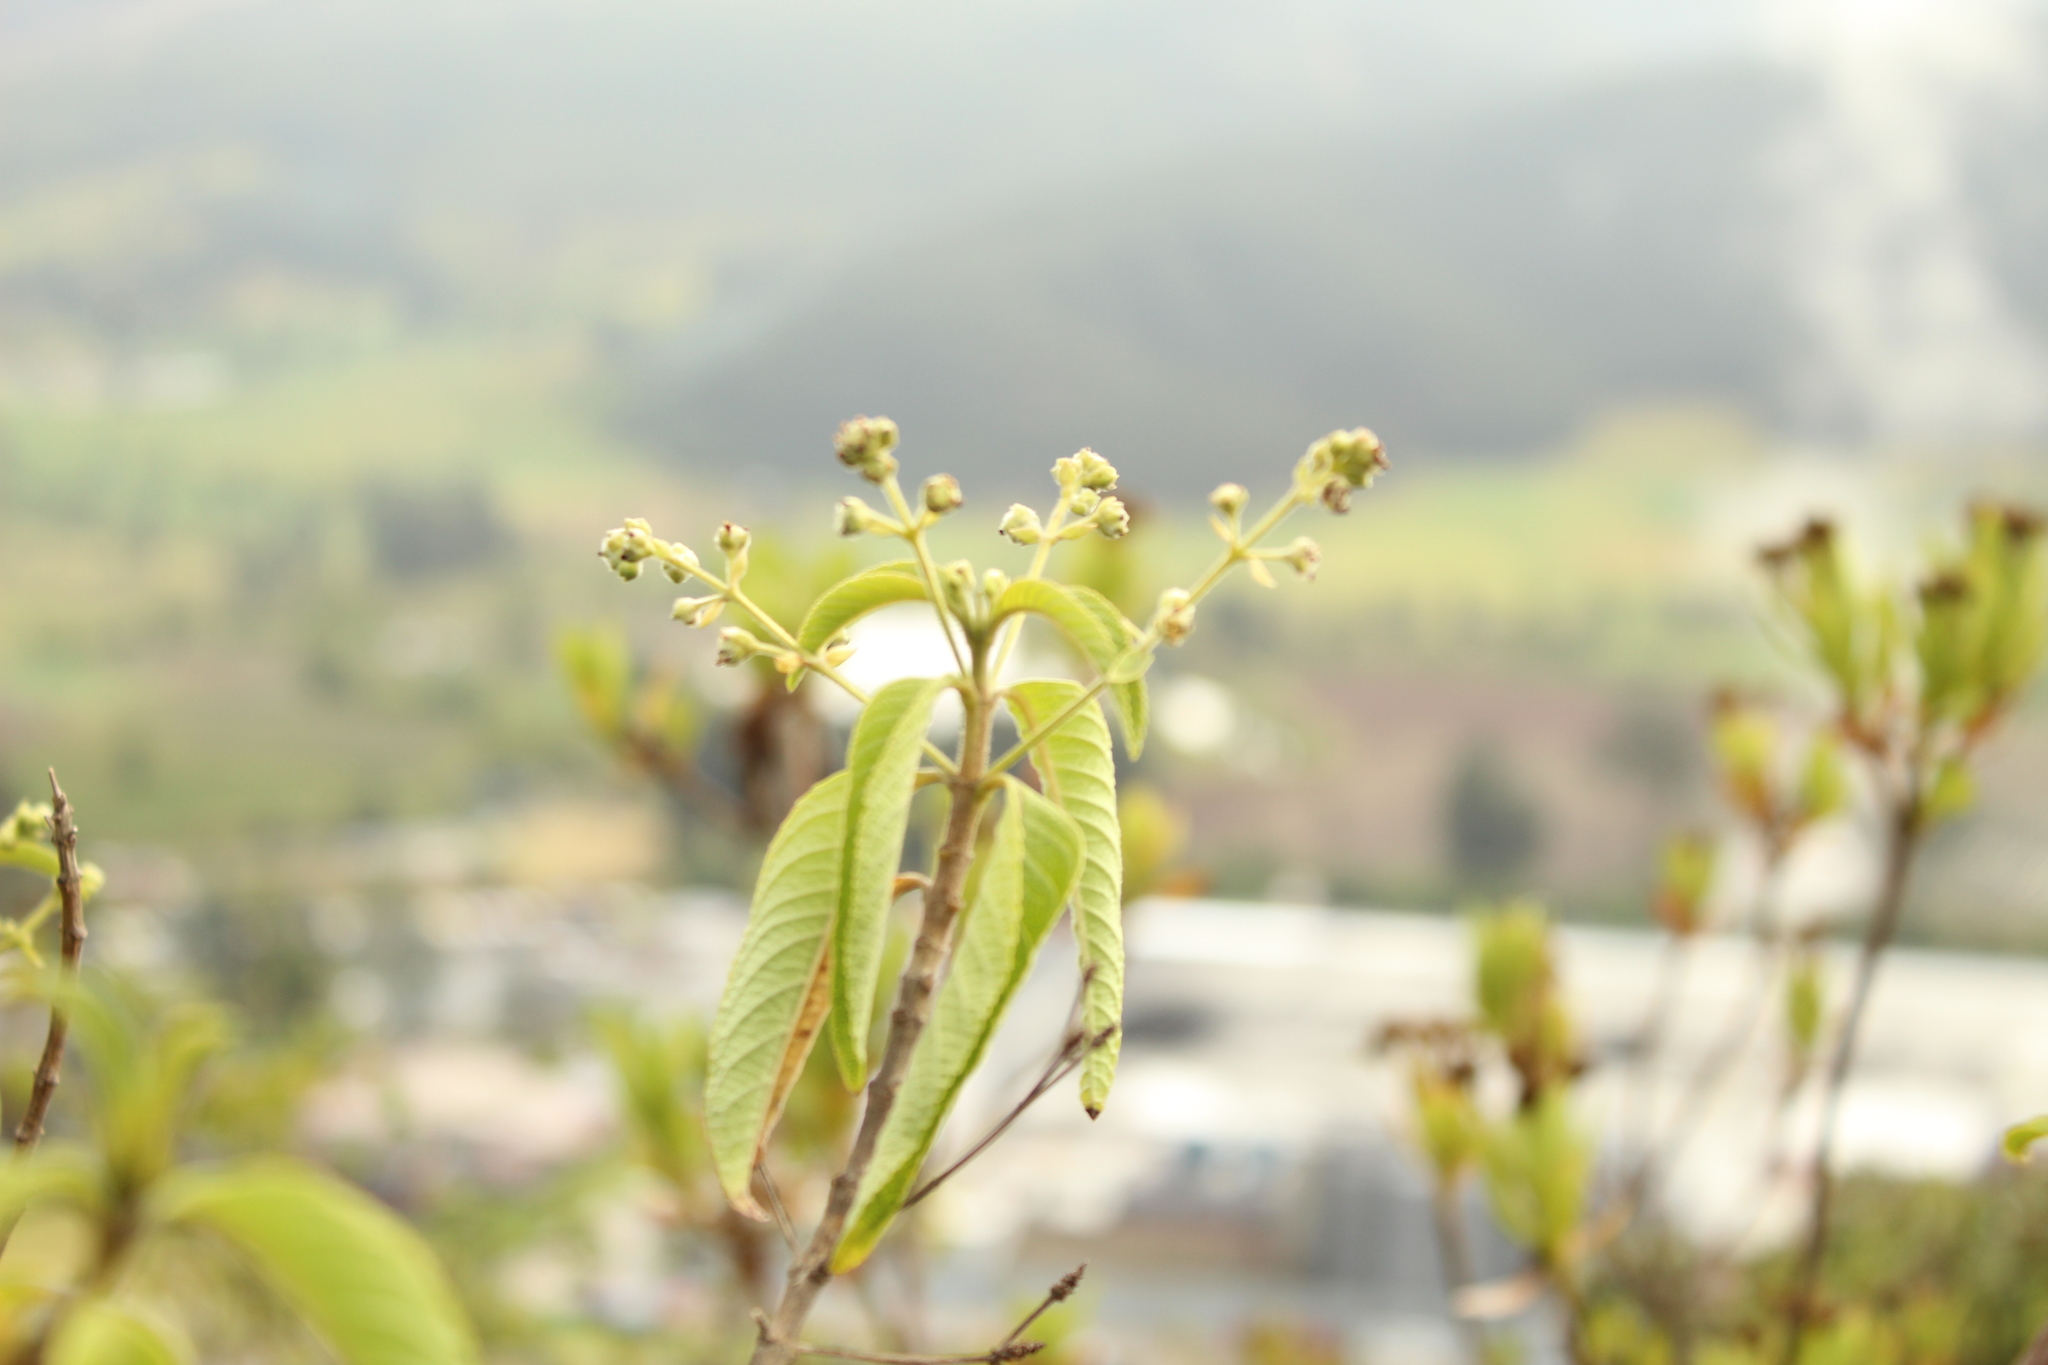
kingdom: Plantae
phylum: Tracheophyta
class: Magnoliopsida
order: Lamiales
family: Verbenaceae
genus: Lippia
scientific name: Lippia hirsuta
